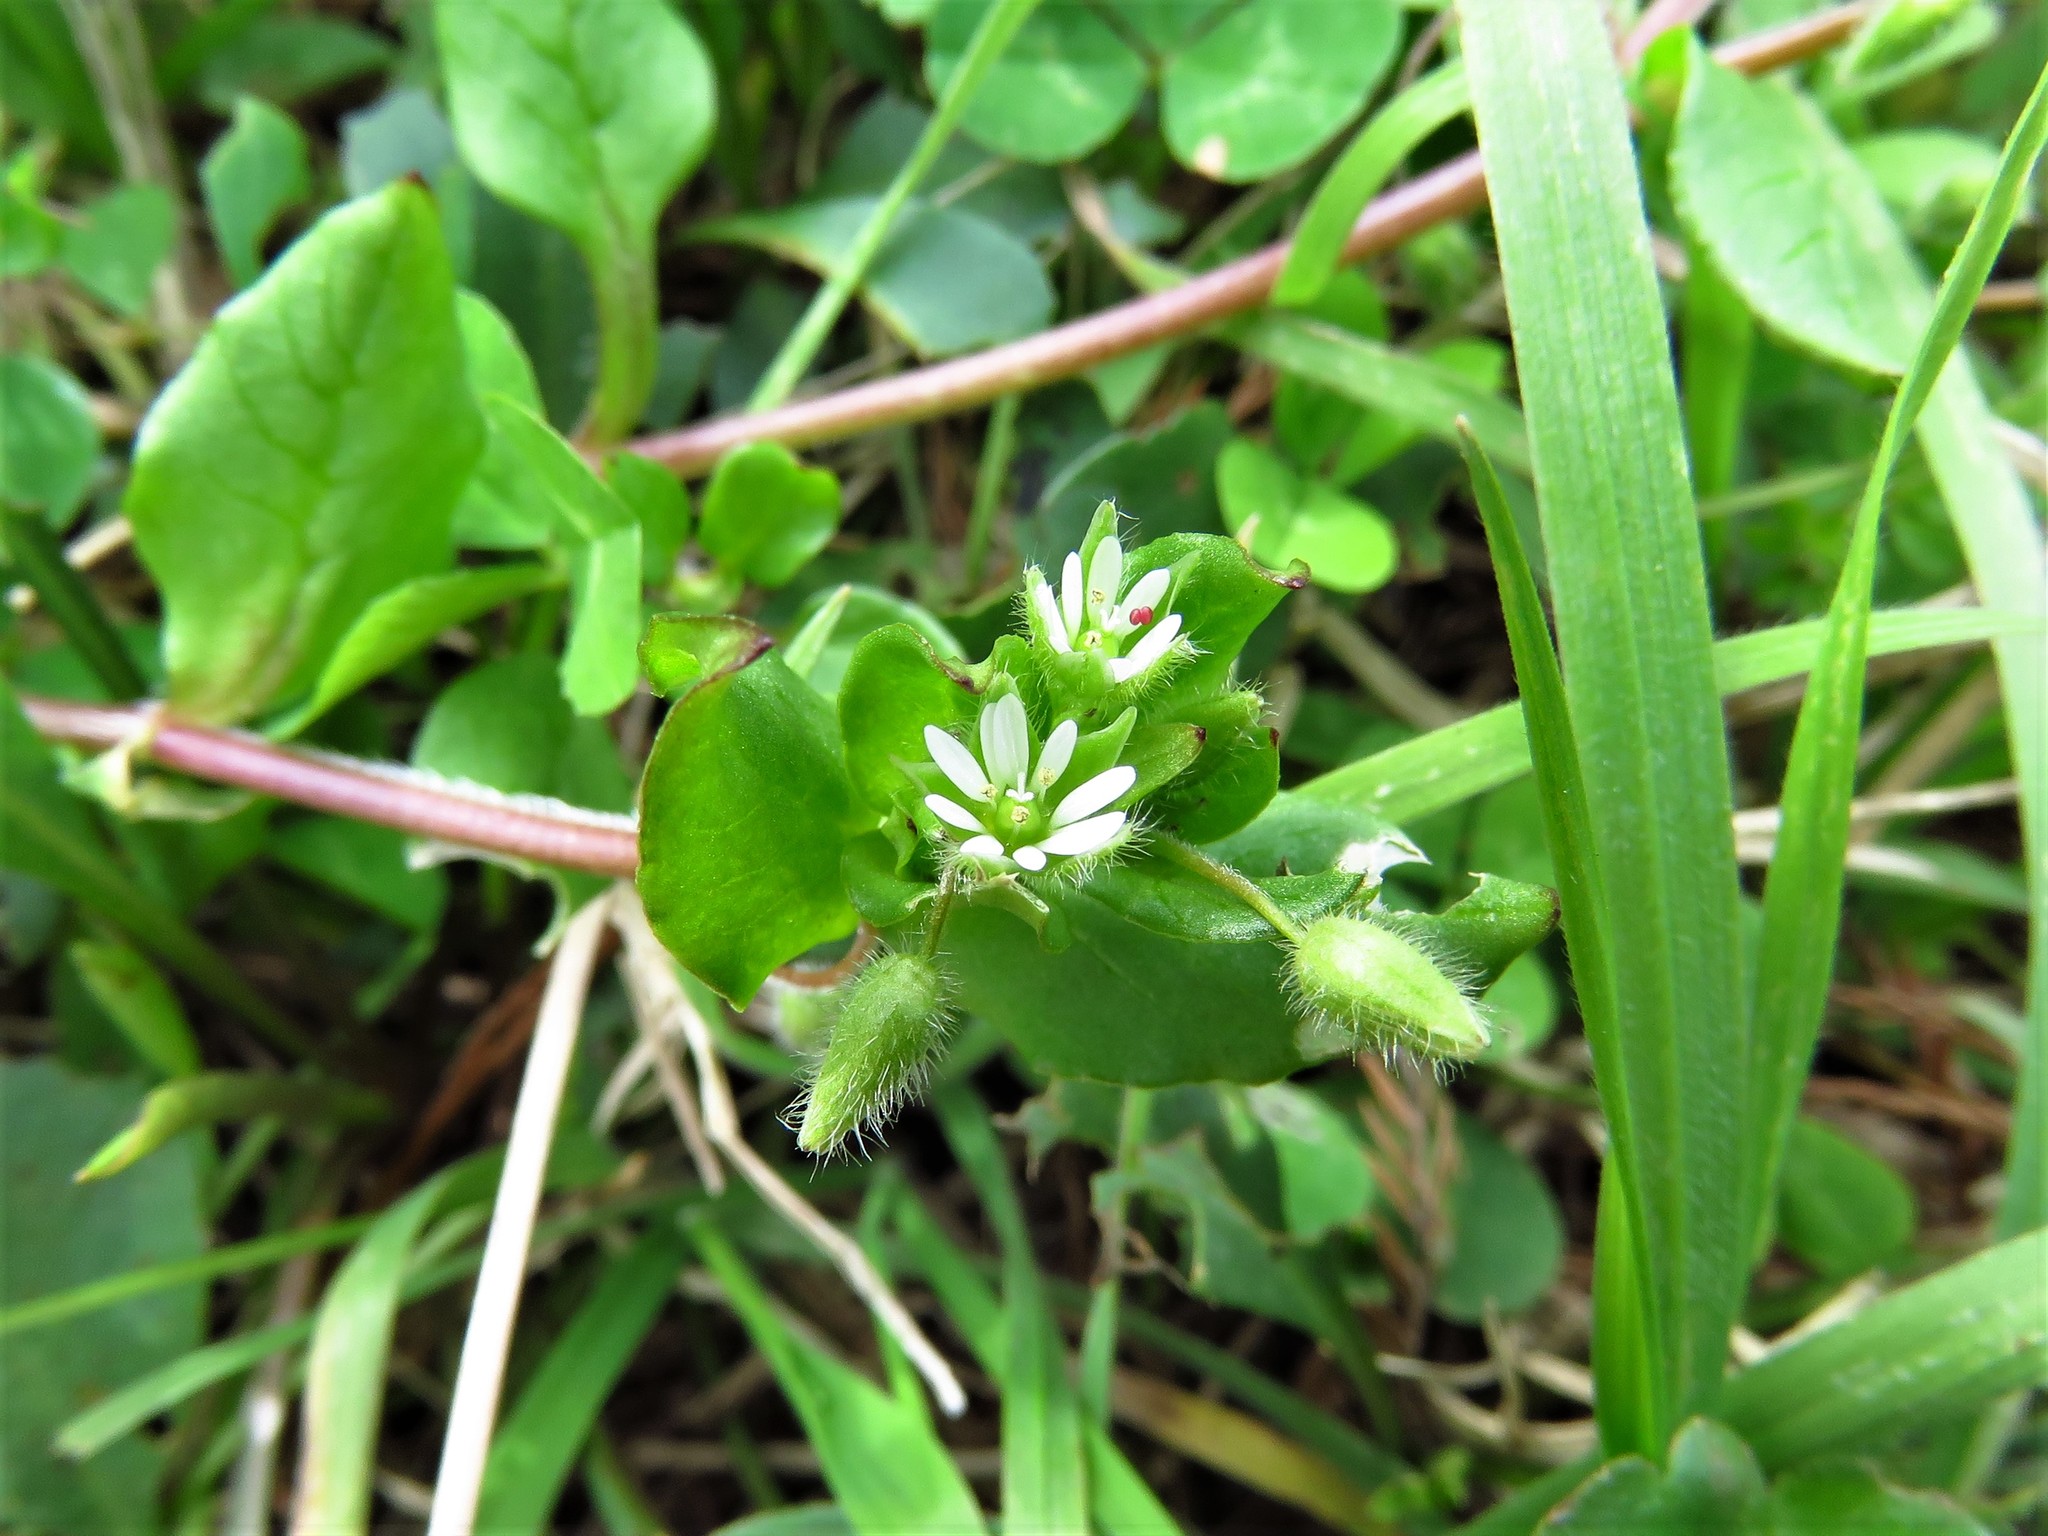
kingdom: Plantae
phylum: Tracheophyta
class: Magnoliopsida
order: Caryophyllales
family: Caryophyllaceae
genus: Stellaria
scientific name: Stellaria media
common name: Common chickweed
